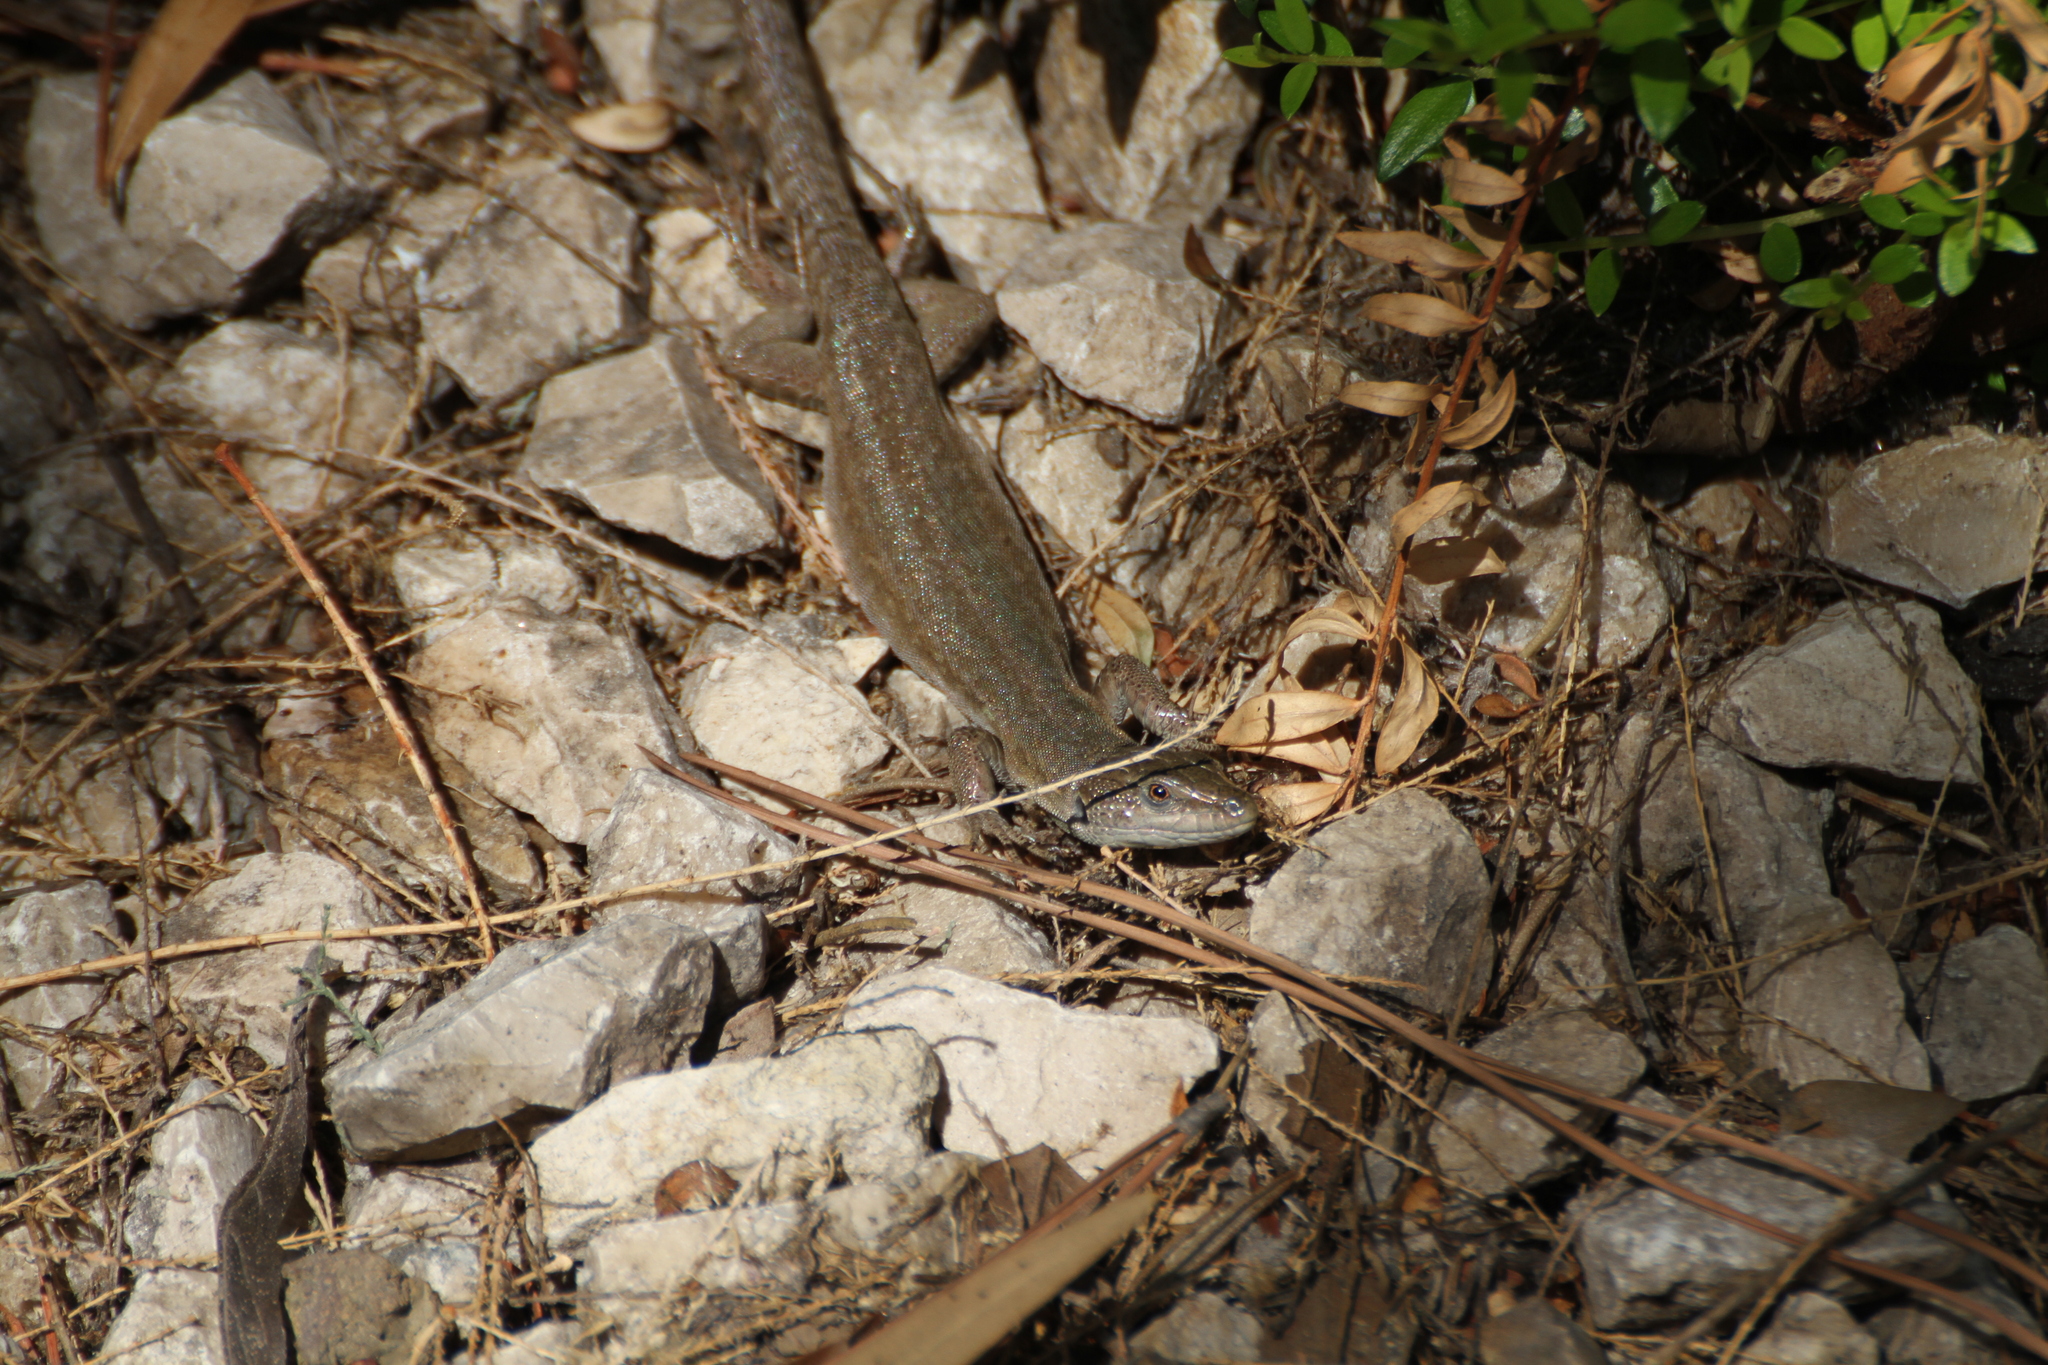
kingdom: Animalia
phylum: Chordata
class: Squamata
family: Lacertidae
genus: Podarcis
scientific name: Podarcis siculus
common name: Italian wall lizard
